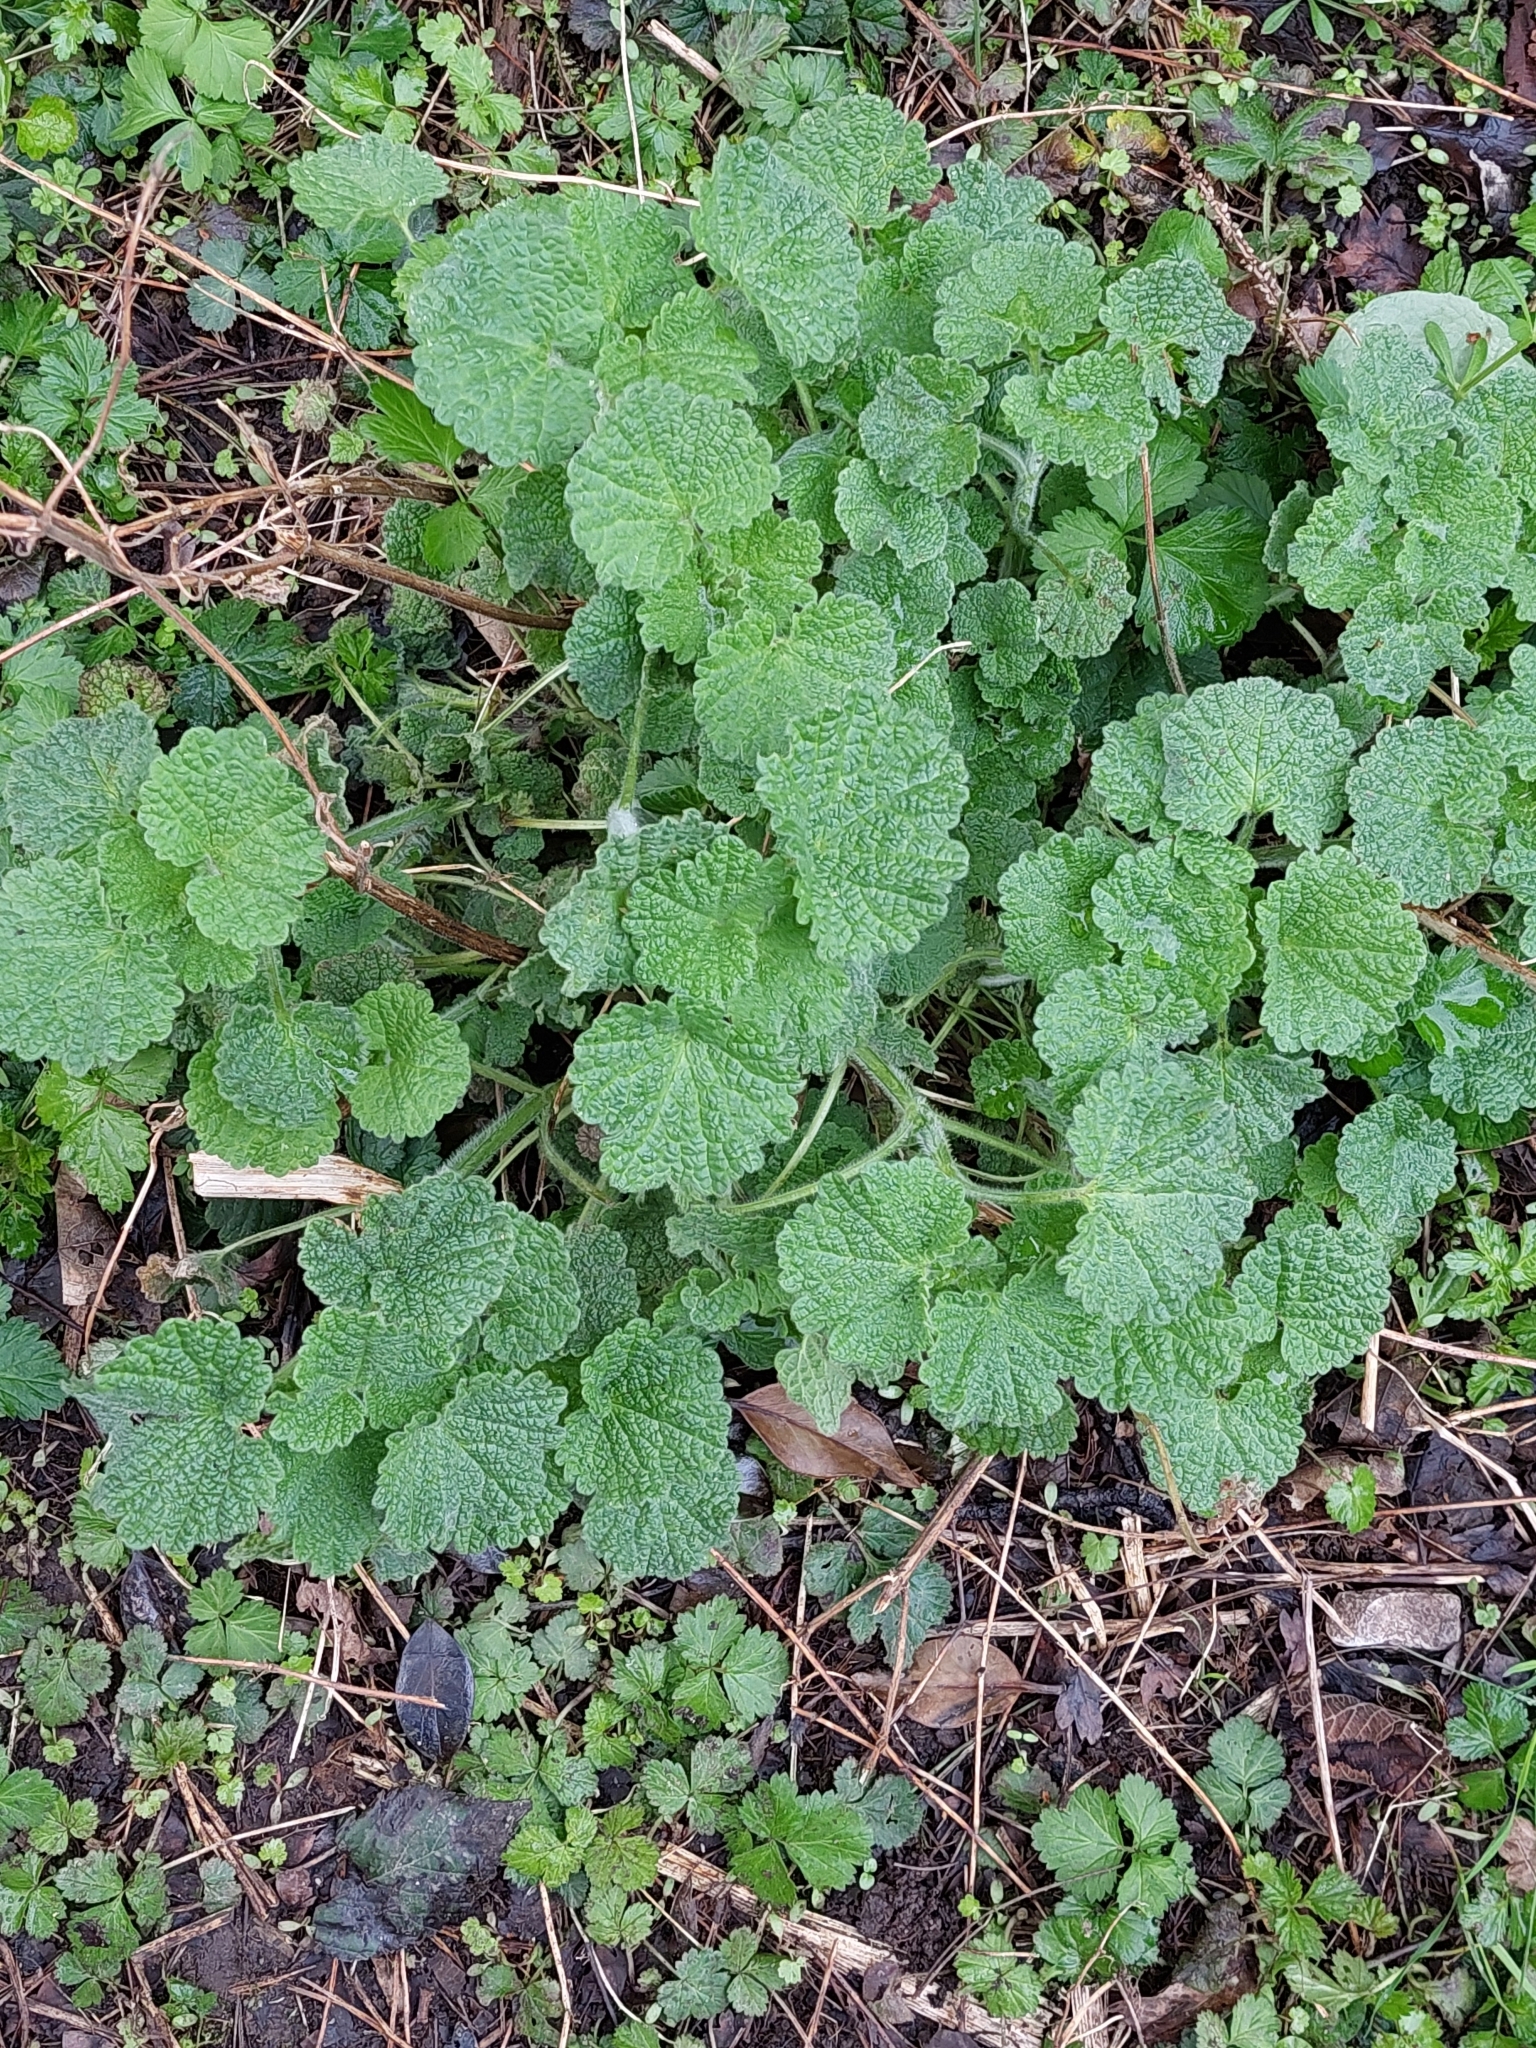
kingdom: Plantae
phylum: Tracheophyta
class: Magnoliopsida
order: Lamiales
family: Lamiaceae
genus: Ballota
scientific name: Ballota nigra
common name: Black horehound
